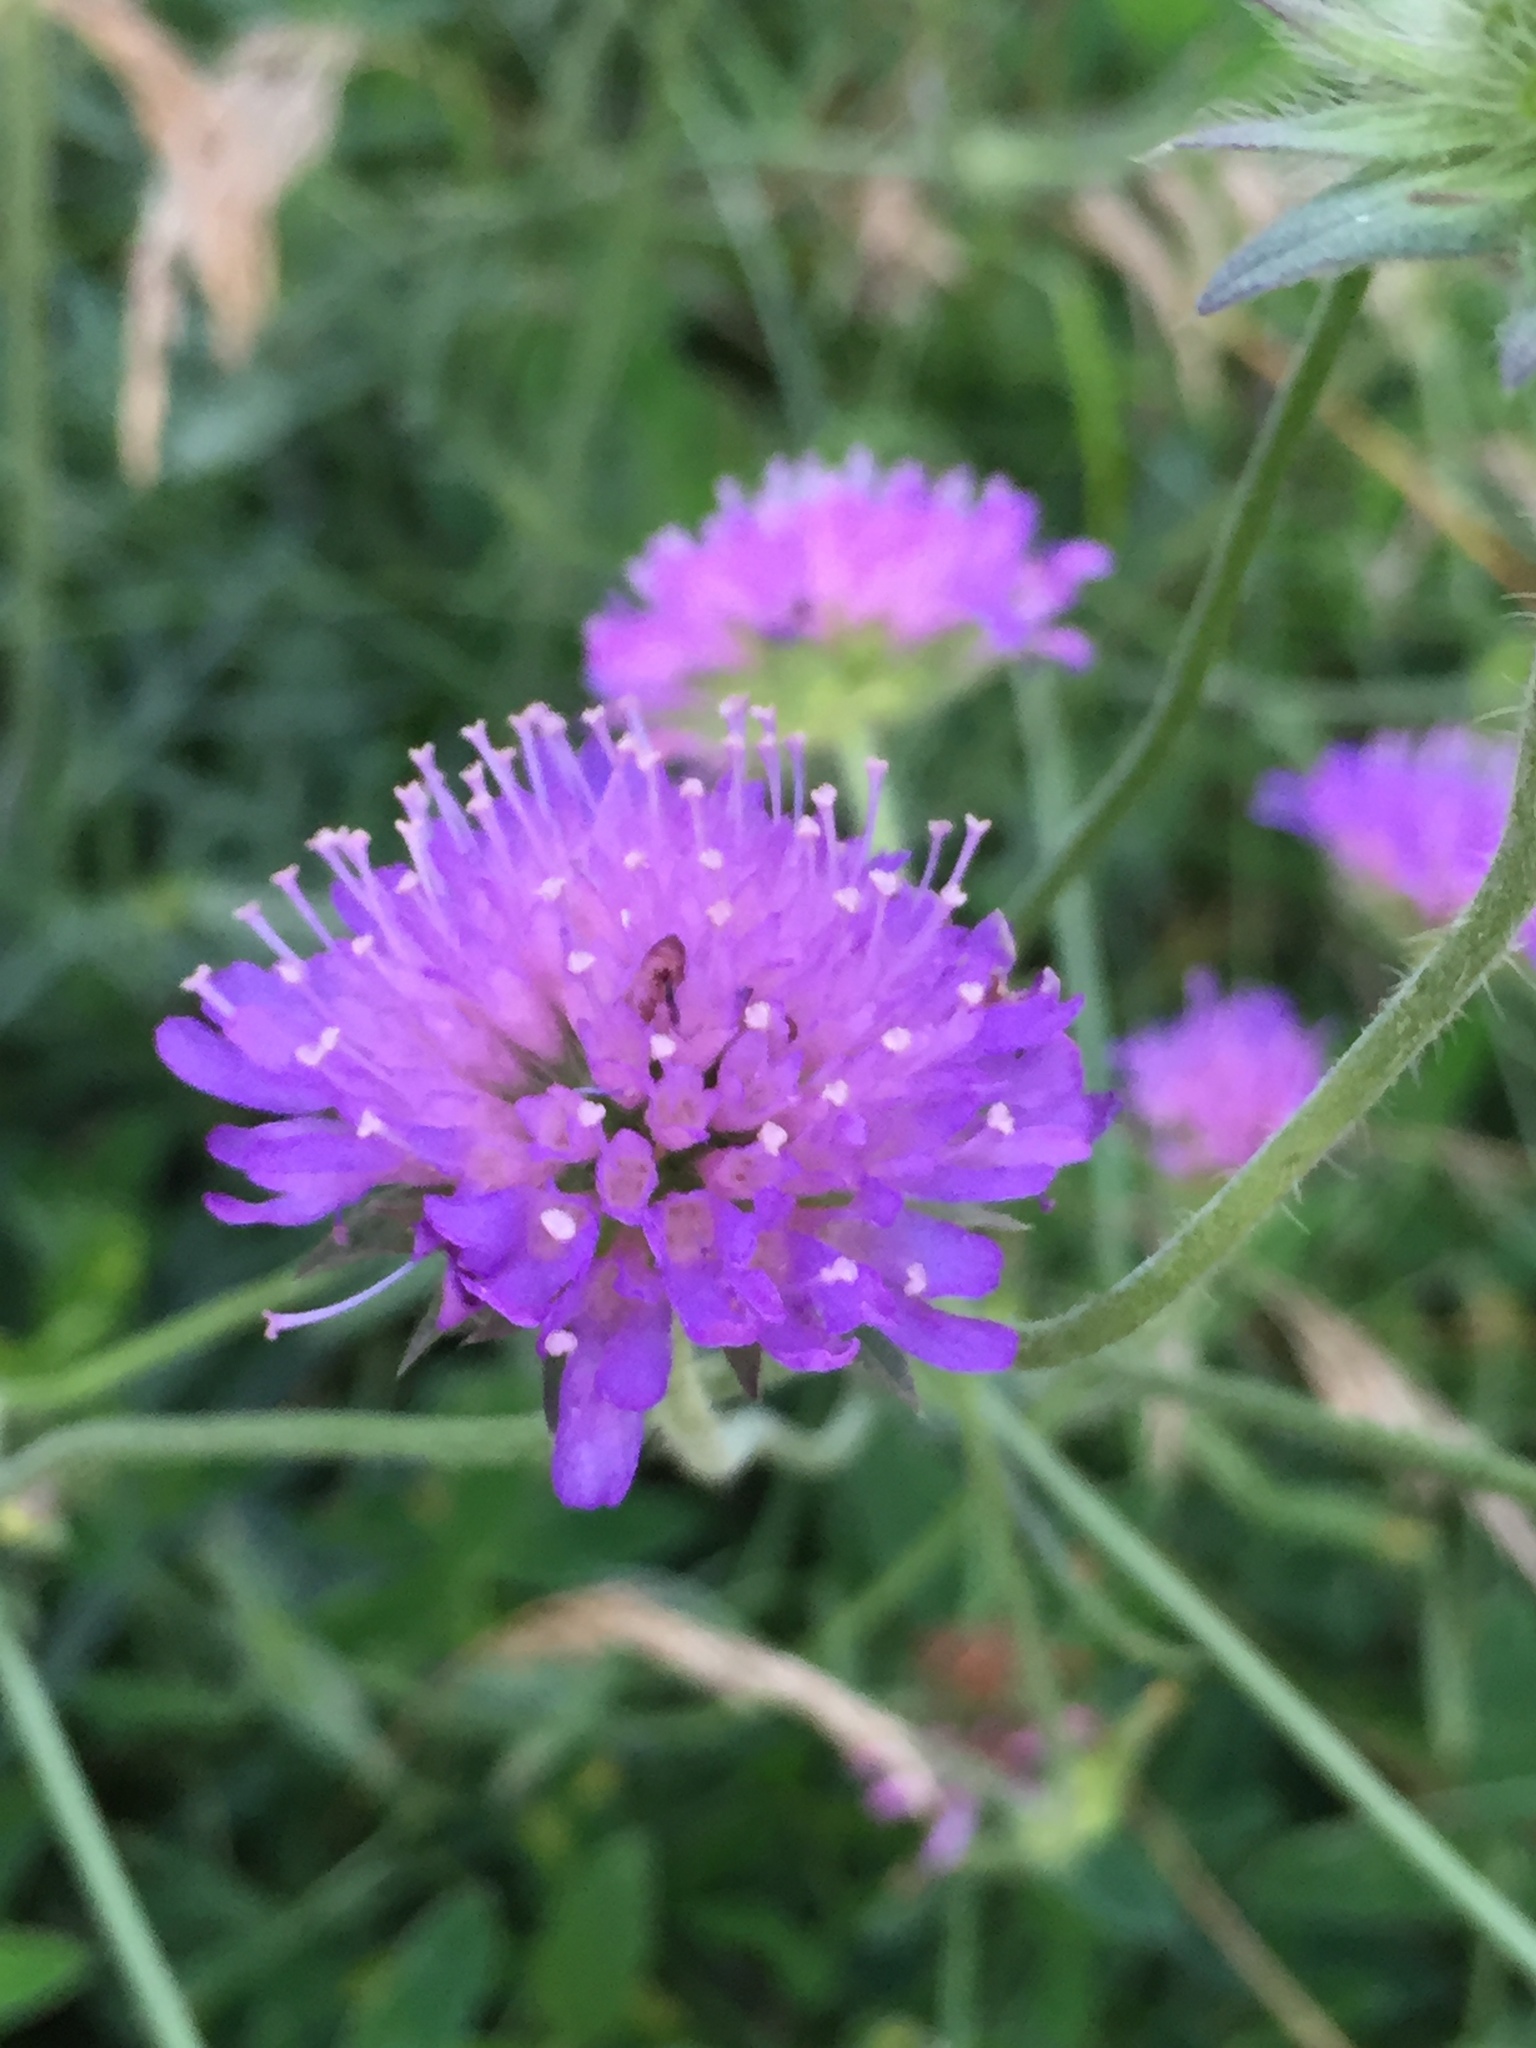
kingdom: Plantae
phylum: Tracheophyta
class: Magnoliopsida
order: Dipsacales
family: Caprifoliaceae
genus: Knautia
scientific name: Knautia arvensis
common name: Field scabiosa
